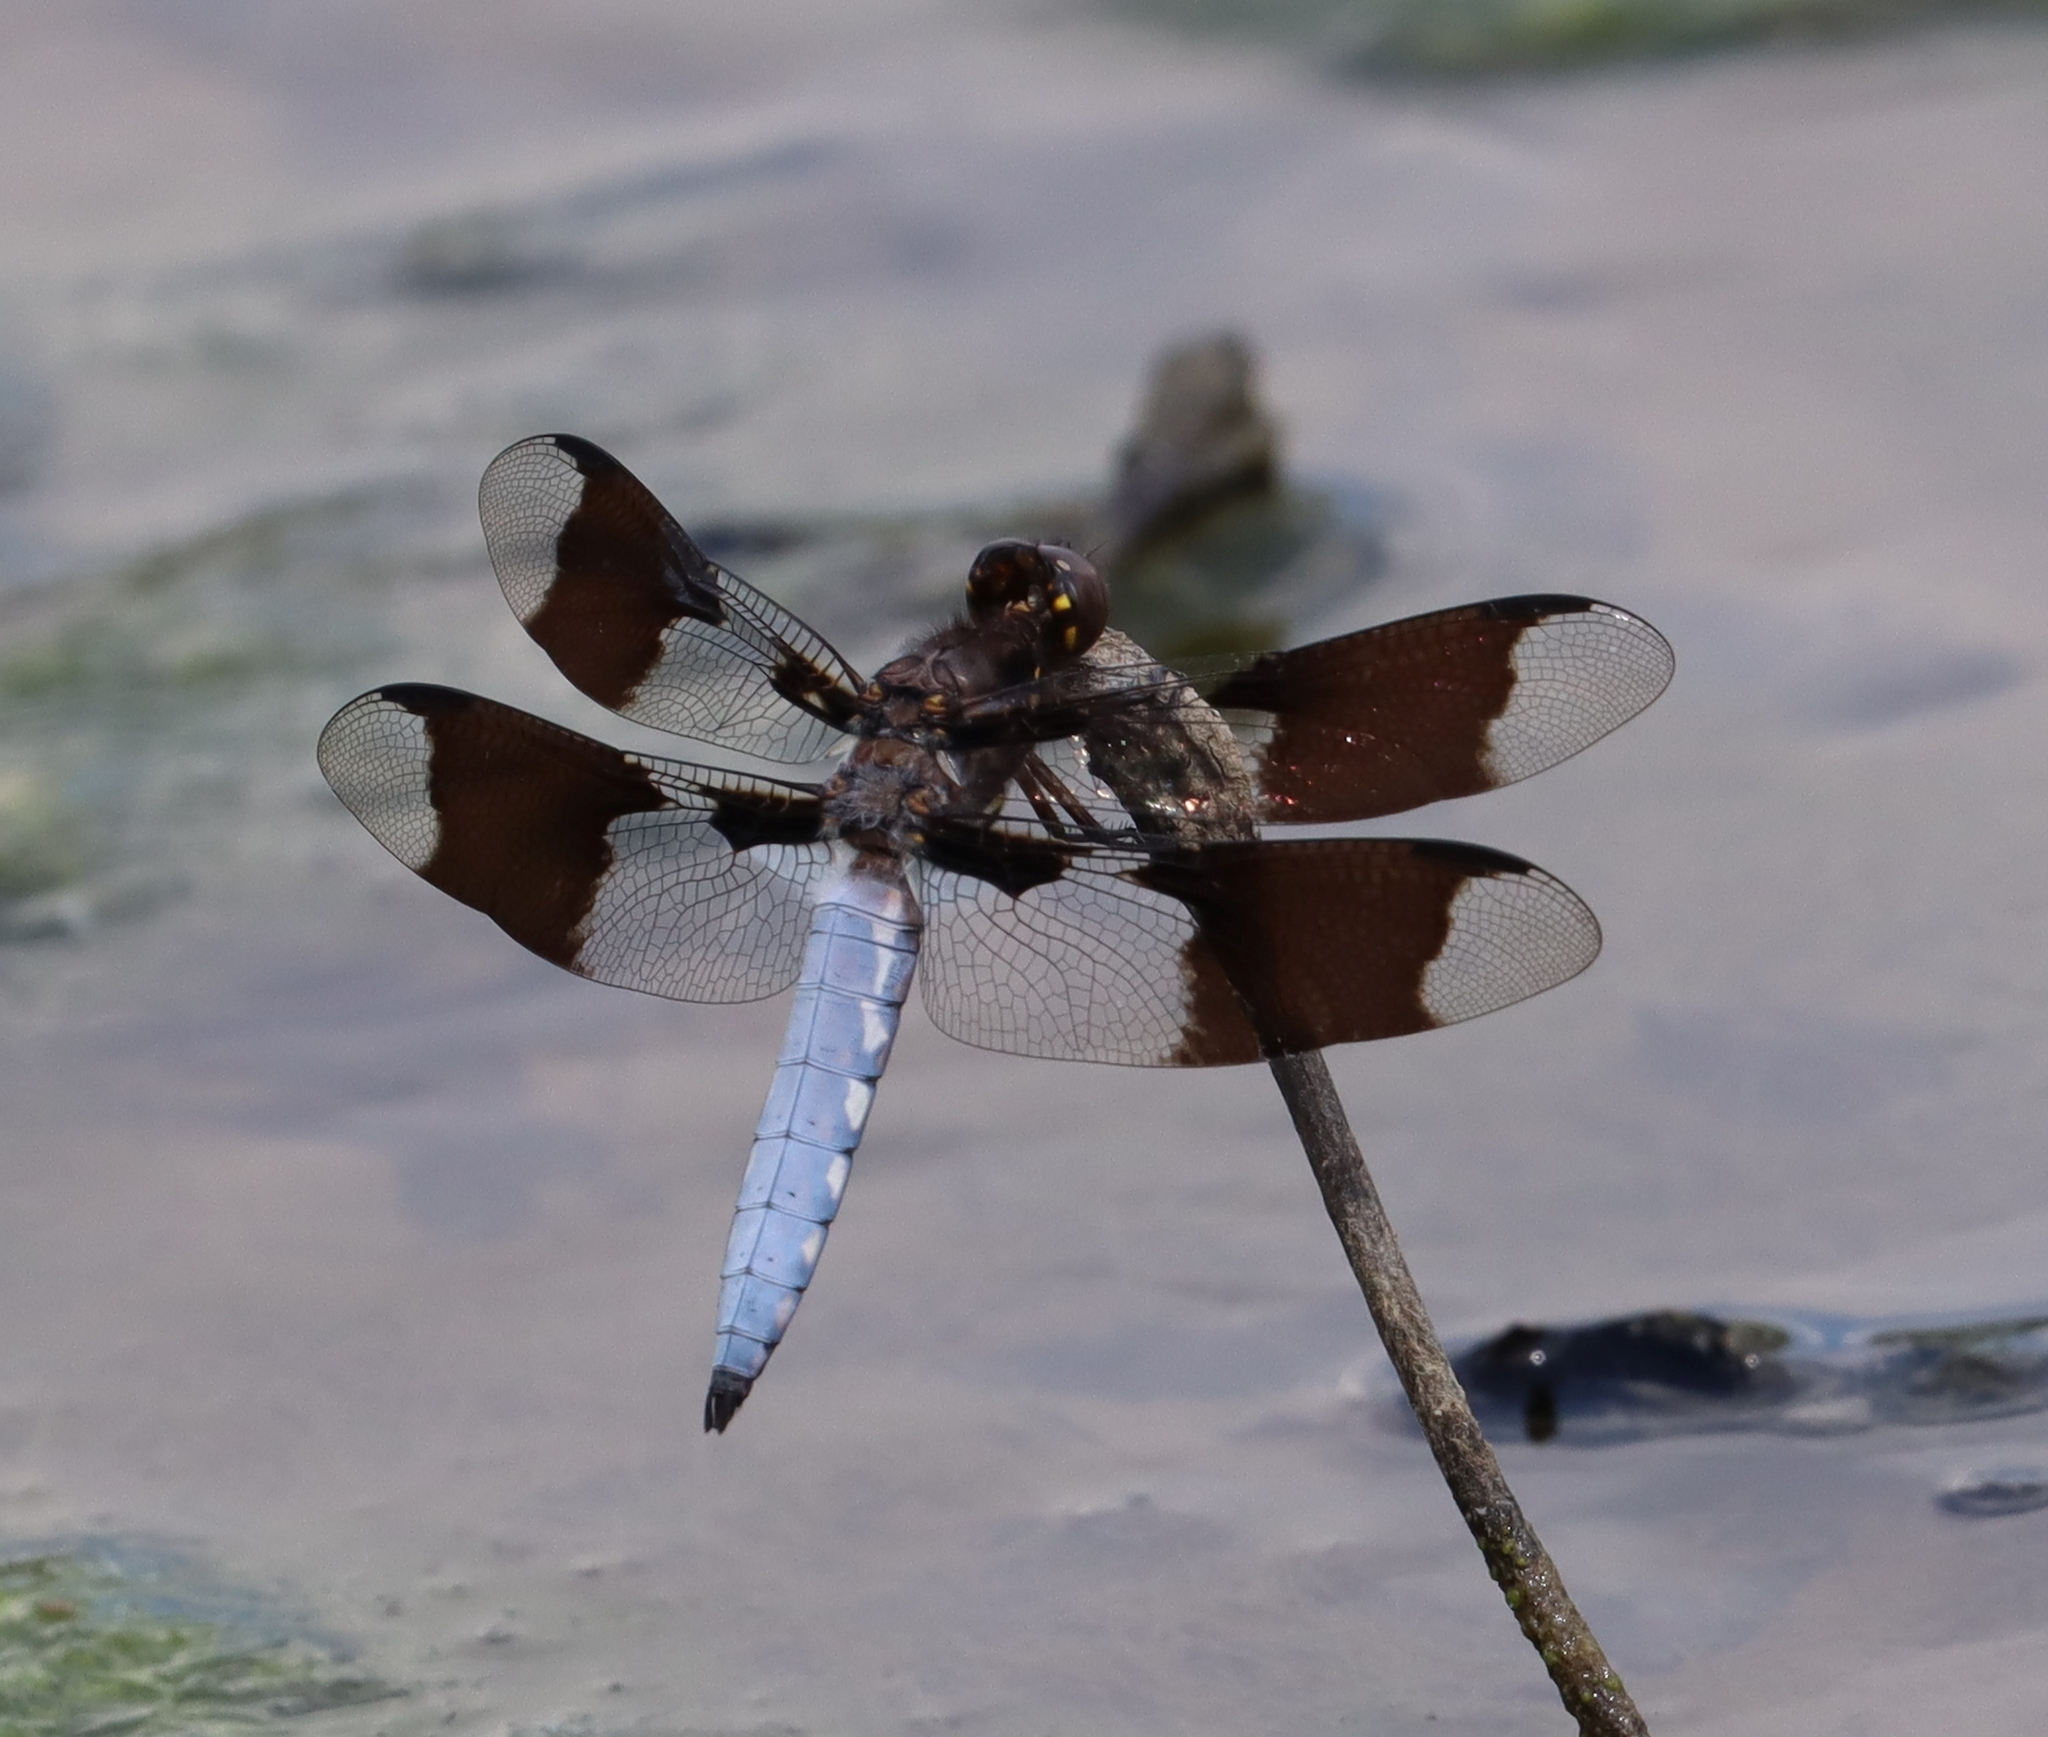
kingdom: Animalia
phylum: Arthropoda
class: Insecta
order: Odonata
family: Libellulidae
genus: Plathemis
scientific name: Plathemis lydia
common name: Common whitetail
